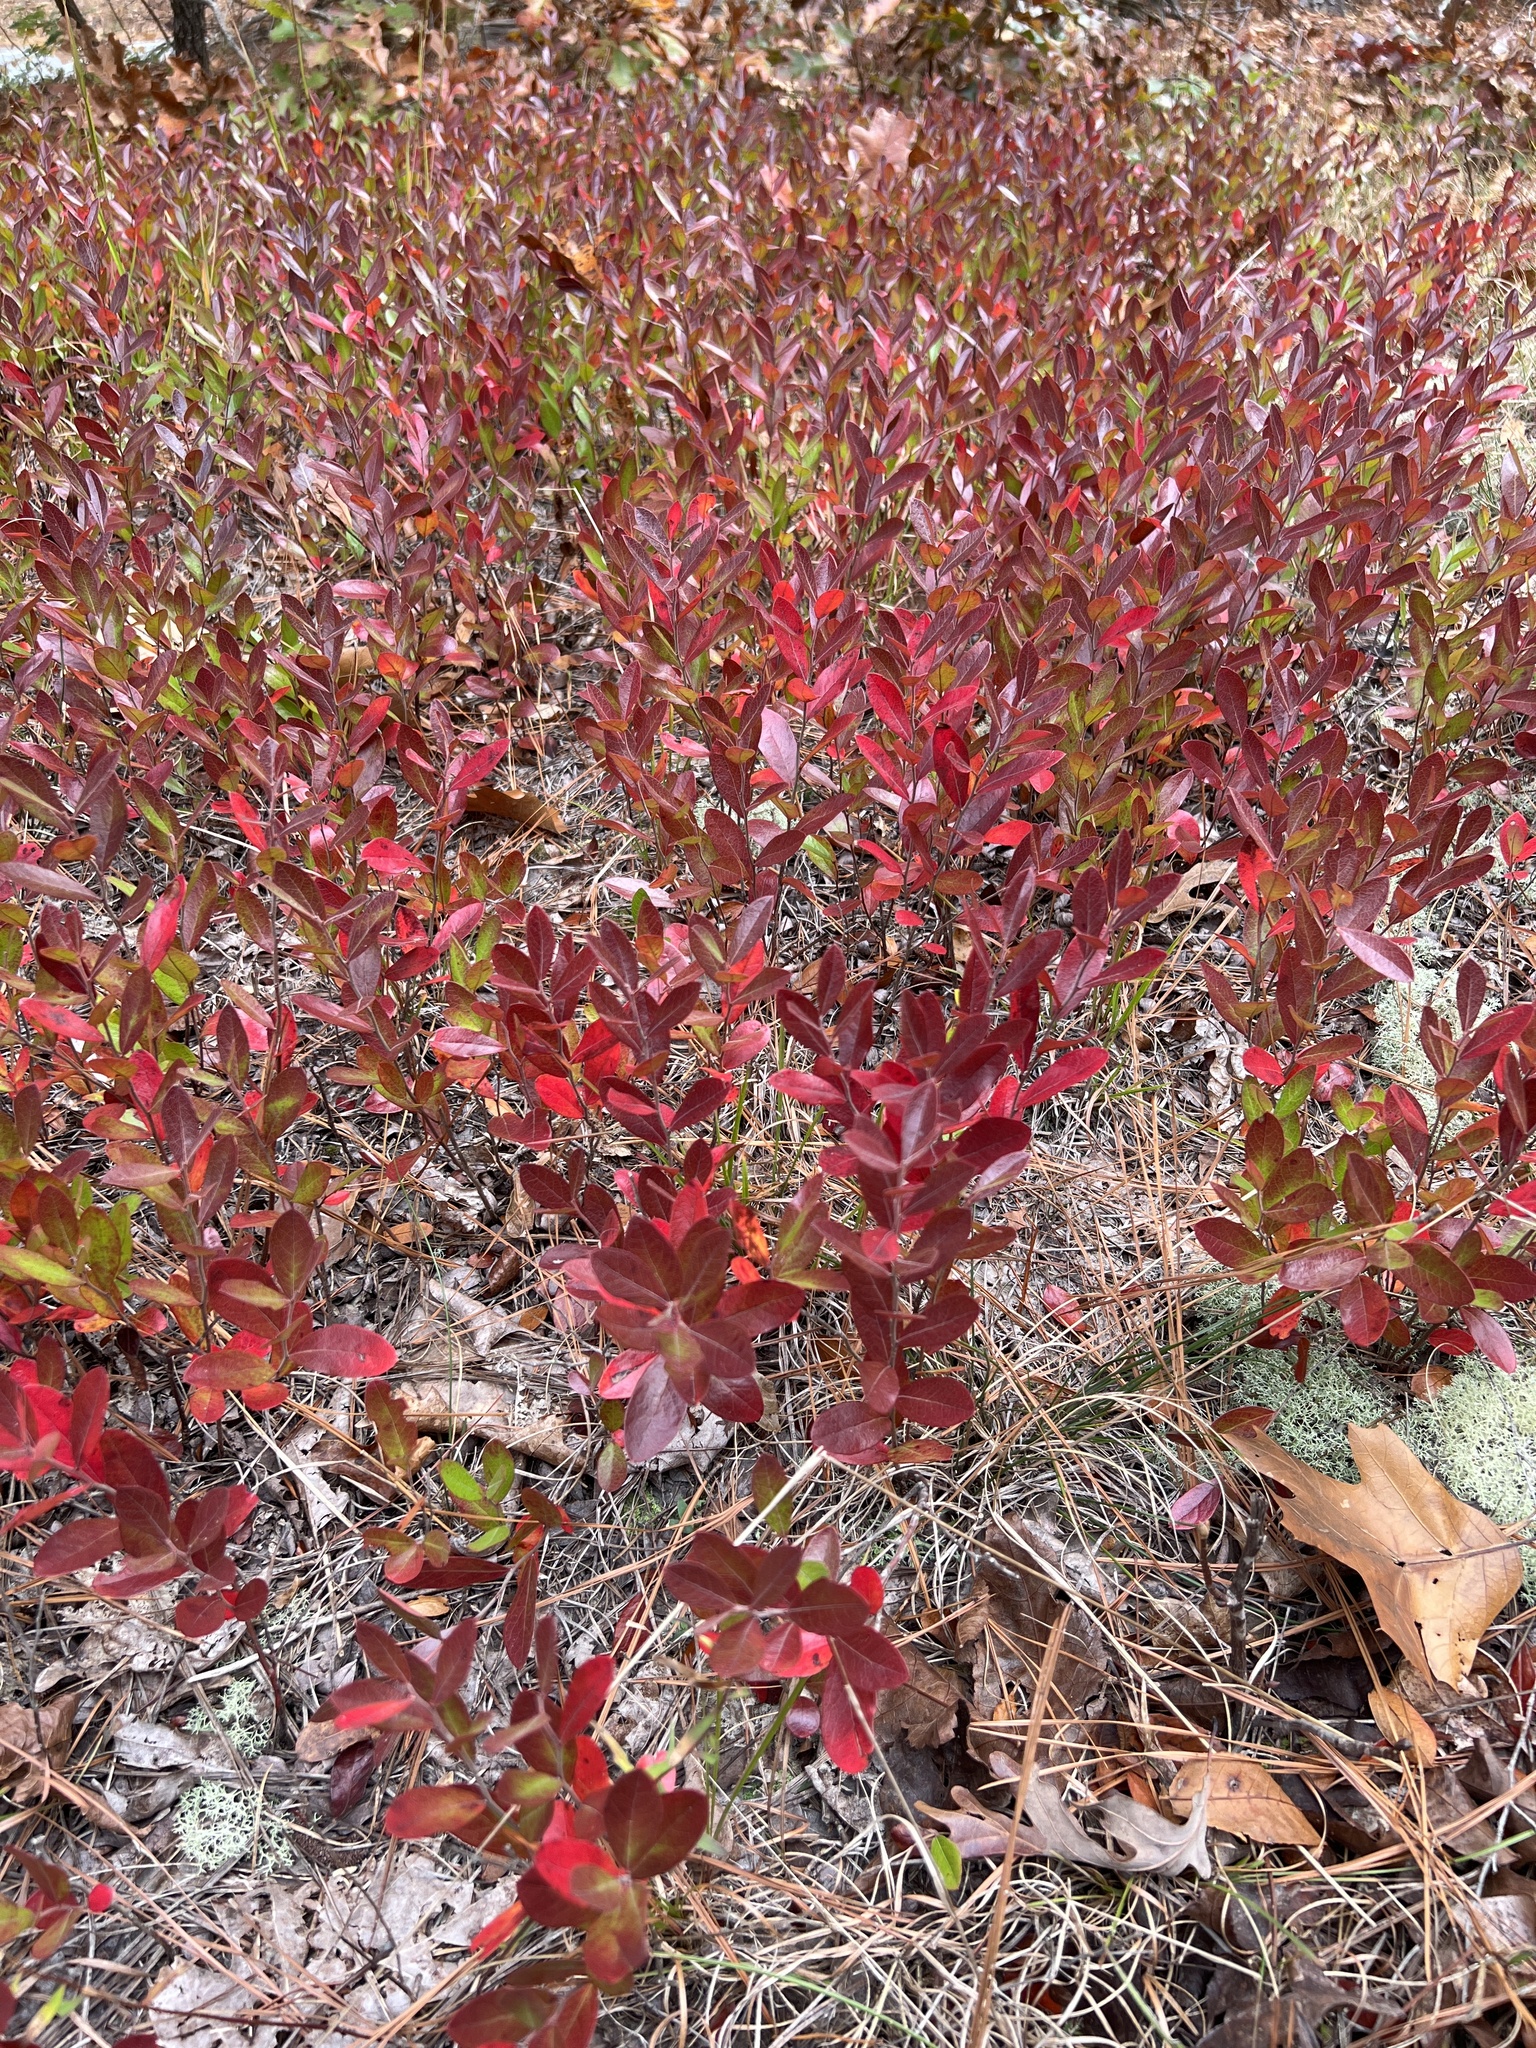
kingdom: Plantae
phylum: Tracheophyta
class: Magnoliopsida
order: Ericales
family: Ericaceae
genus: Vaccinium
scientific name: Vaccinium tenellum
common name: Southern blueberry
